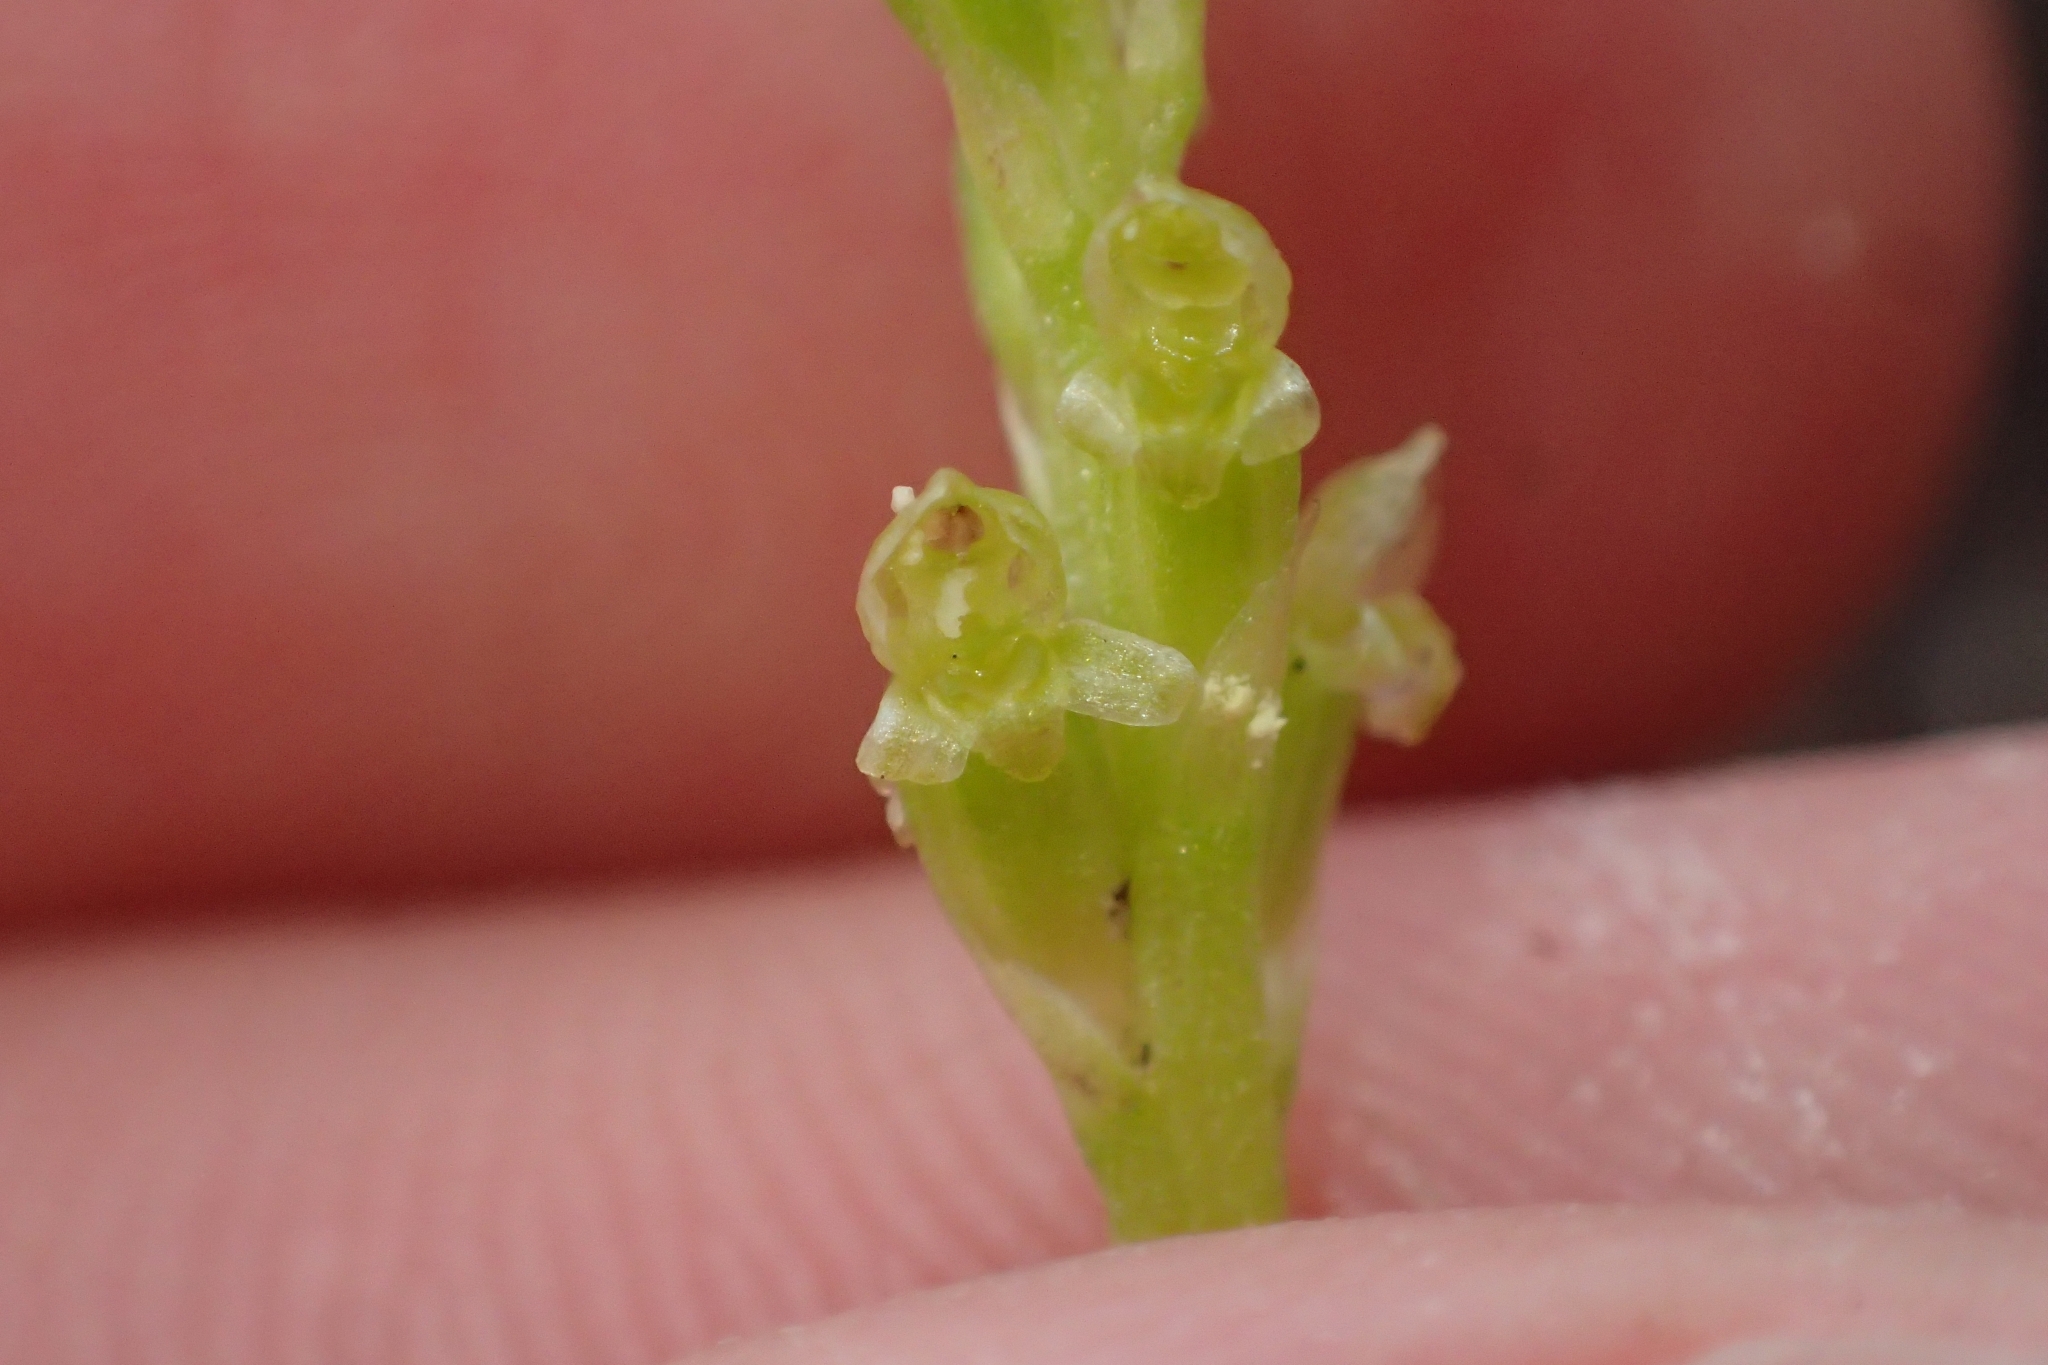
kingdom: Plantae
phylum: Tracheophyta
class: Liliopsida
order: Asparagales
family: Orchidaceae
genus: Microtis
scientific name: Microtis parviflora
